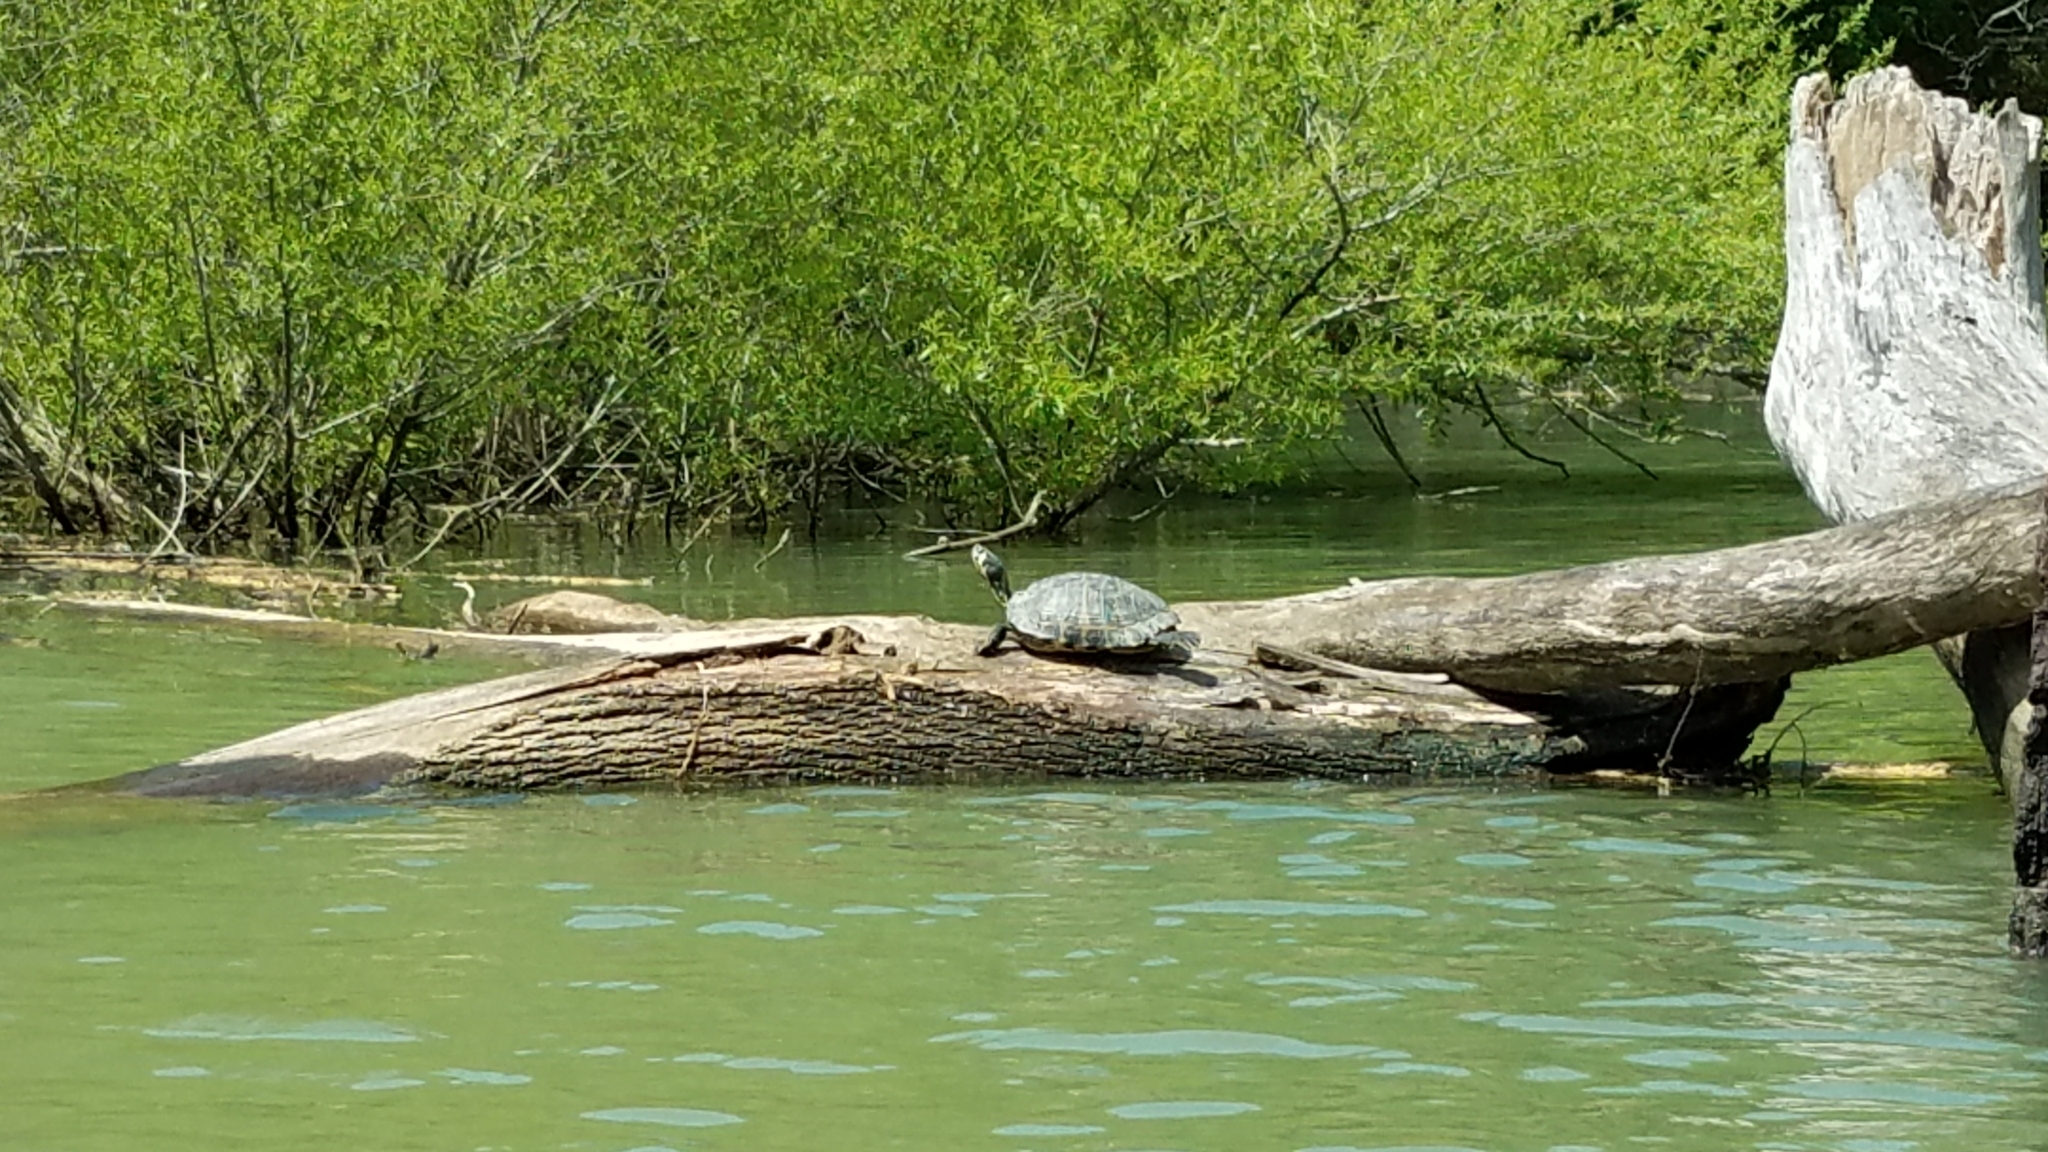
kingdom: Animalia
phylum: Chordata
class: Testudines
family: Emydidae
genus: Trachemys
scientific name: Trachemys scripta
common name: Slider
